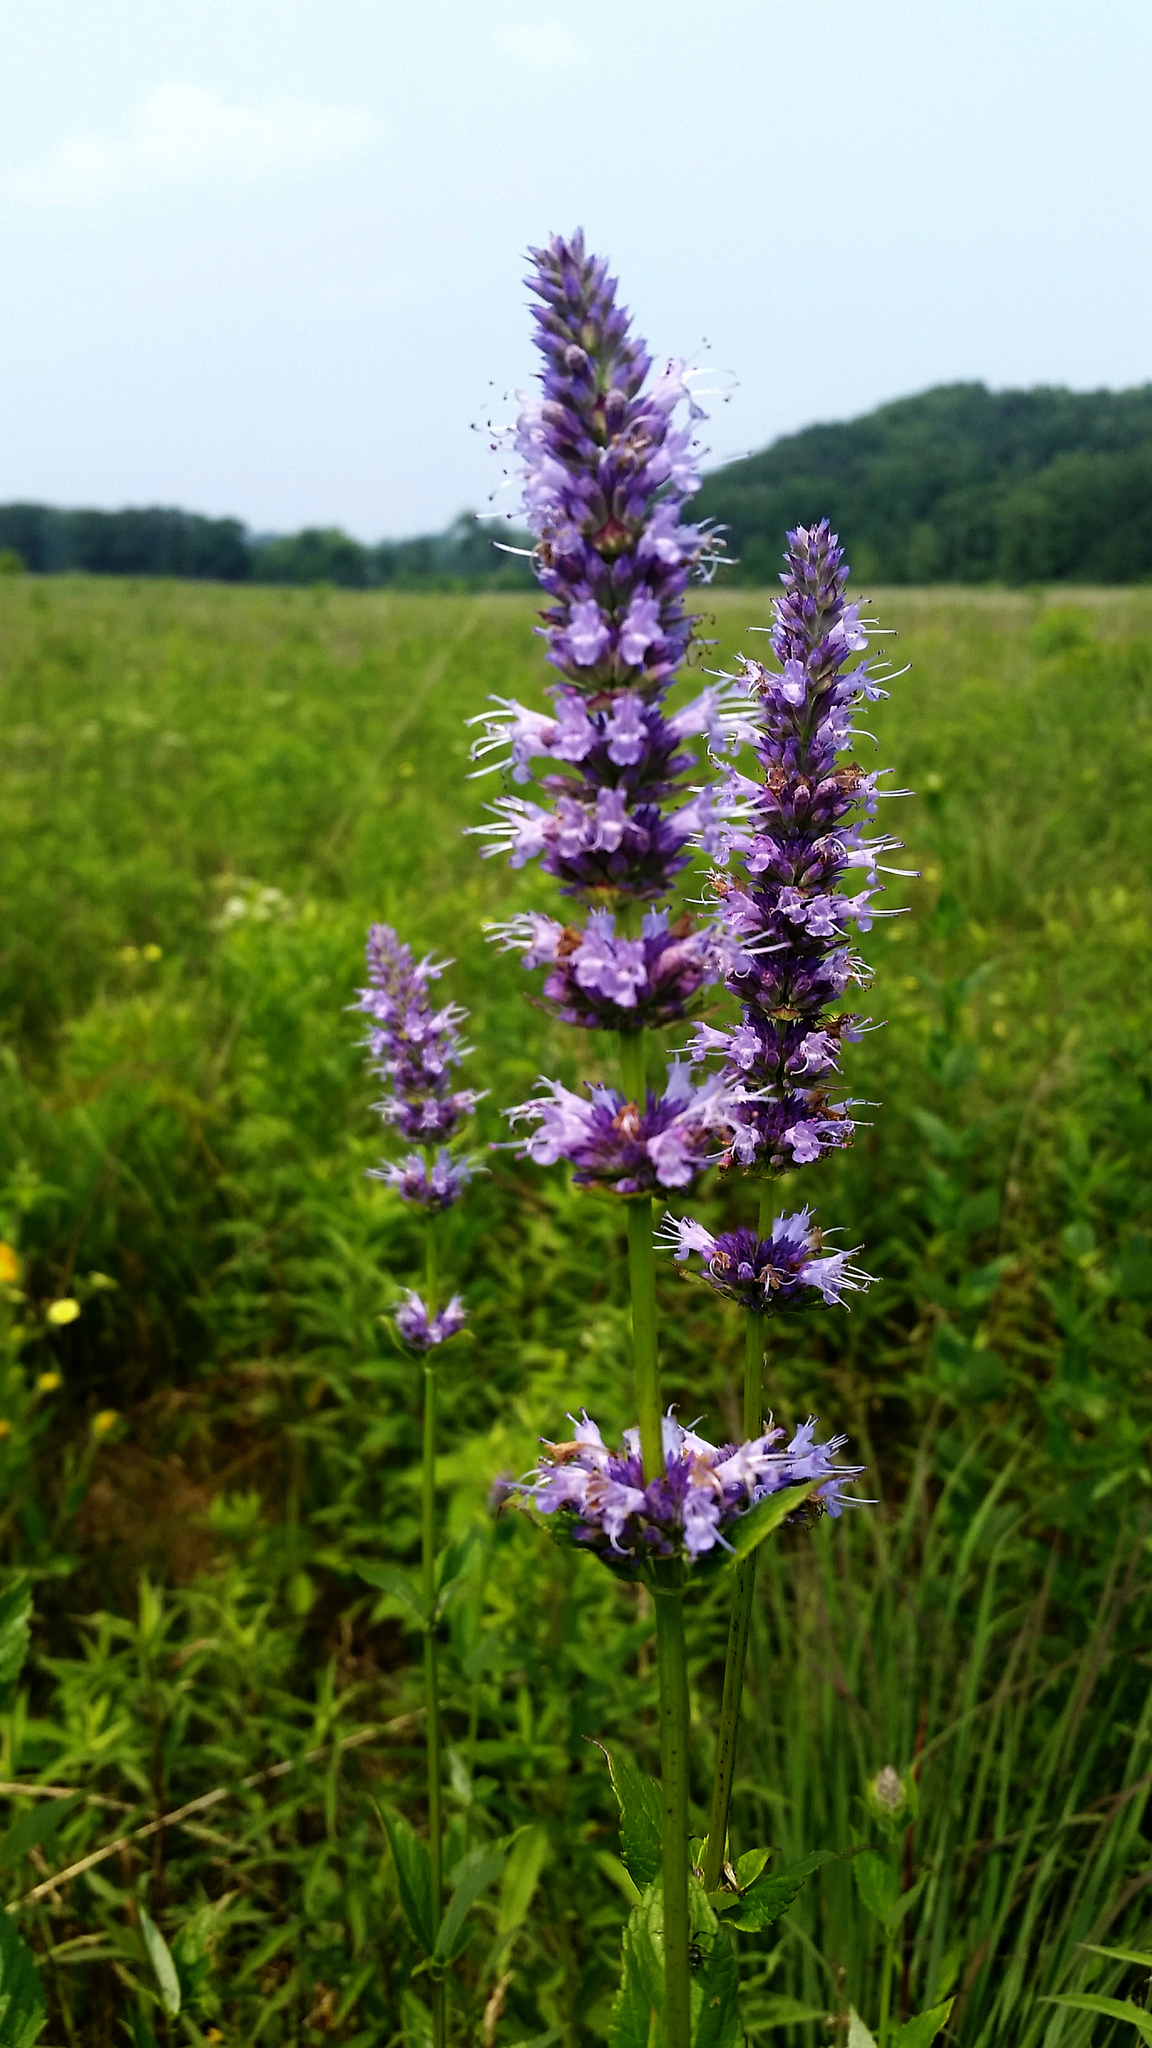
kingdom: Plantae
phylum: Tracheophyta
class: Magnoliopsida
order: Lamiales
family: Lamiaceae
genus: Agastache
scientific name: Agastache foeniculum
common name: Anise hyssop
